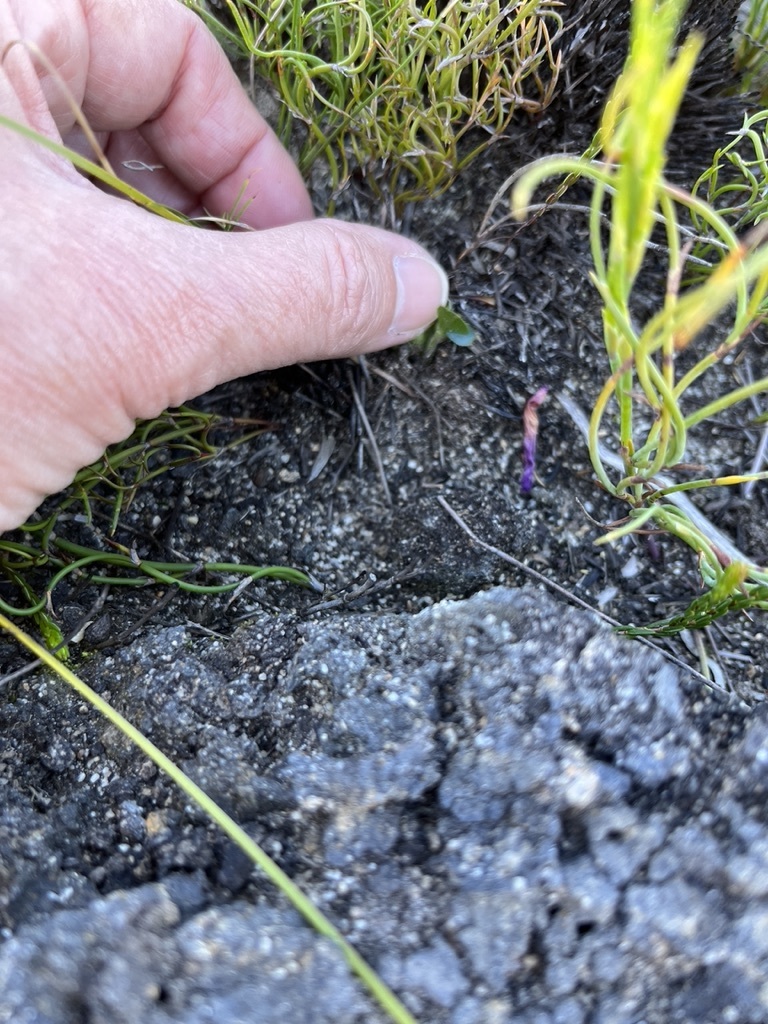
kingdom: Plantae
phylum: Tracheophyta
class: Magnoliopsida
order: Oxalidales
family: Oxalidaceae
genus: Oxalis
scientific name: Oxalis purpurea
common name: Purple woodsorrel
